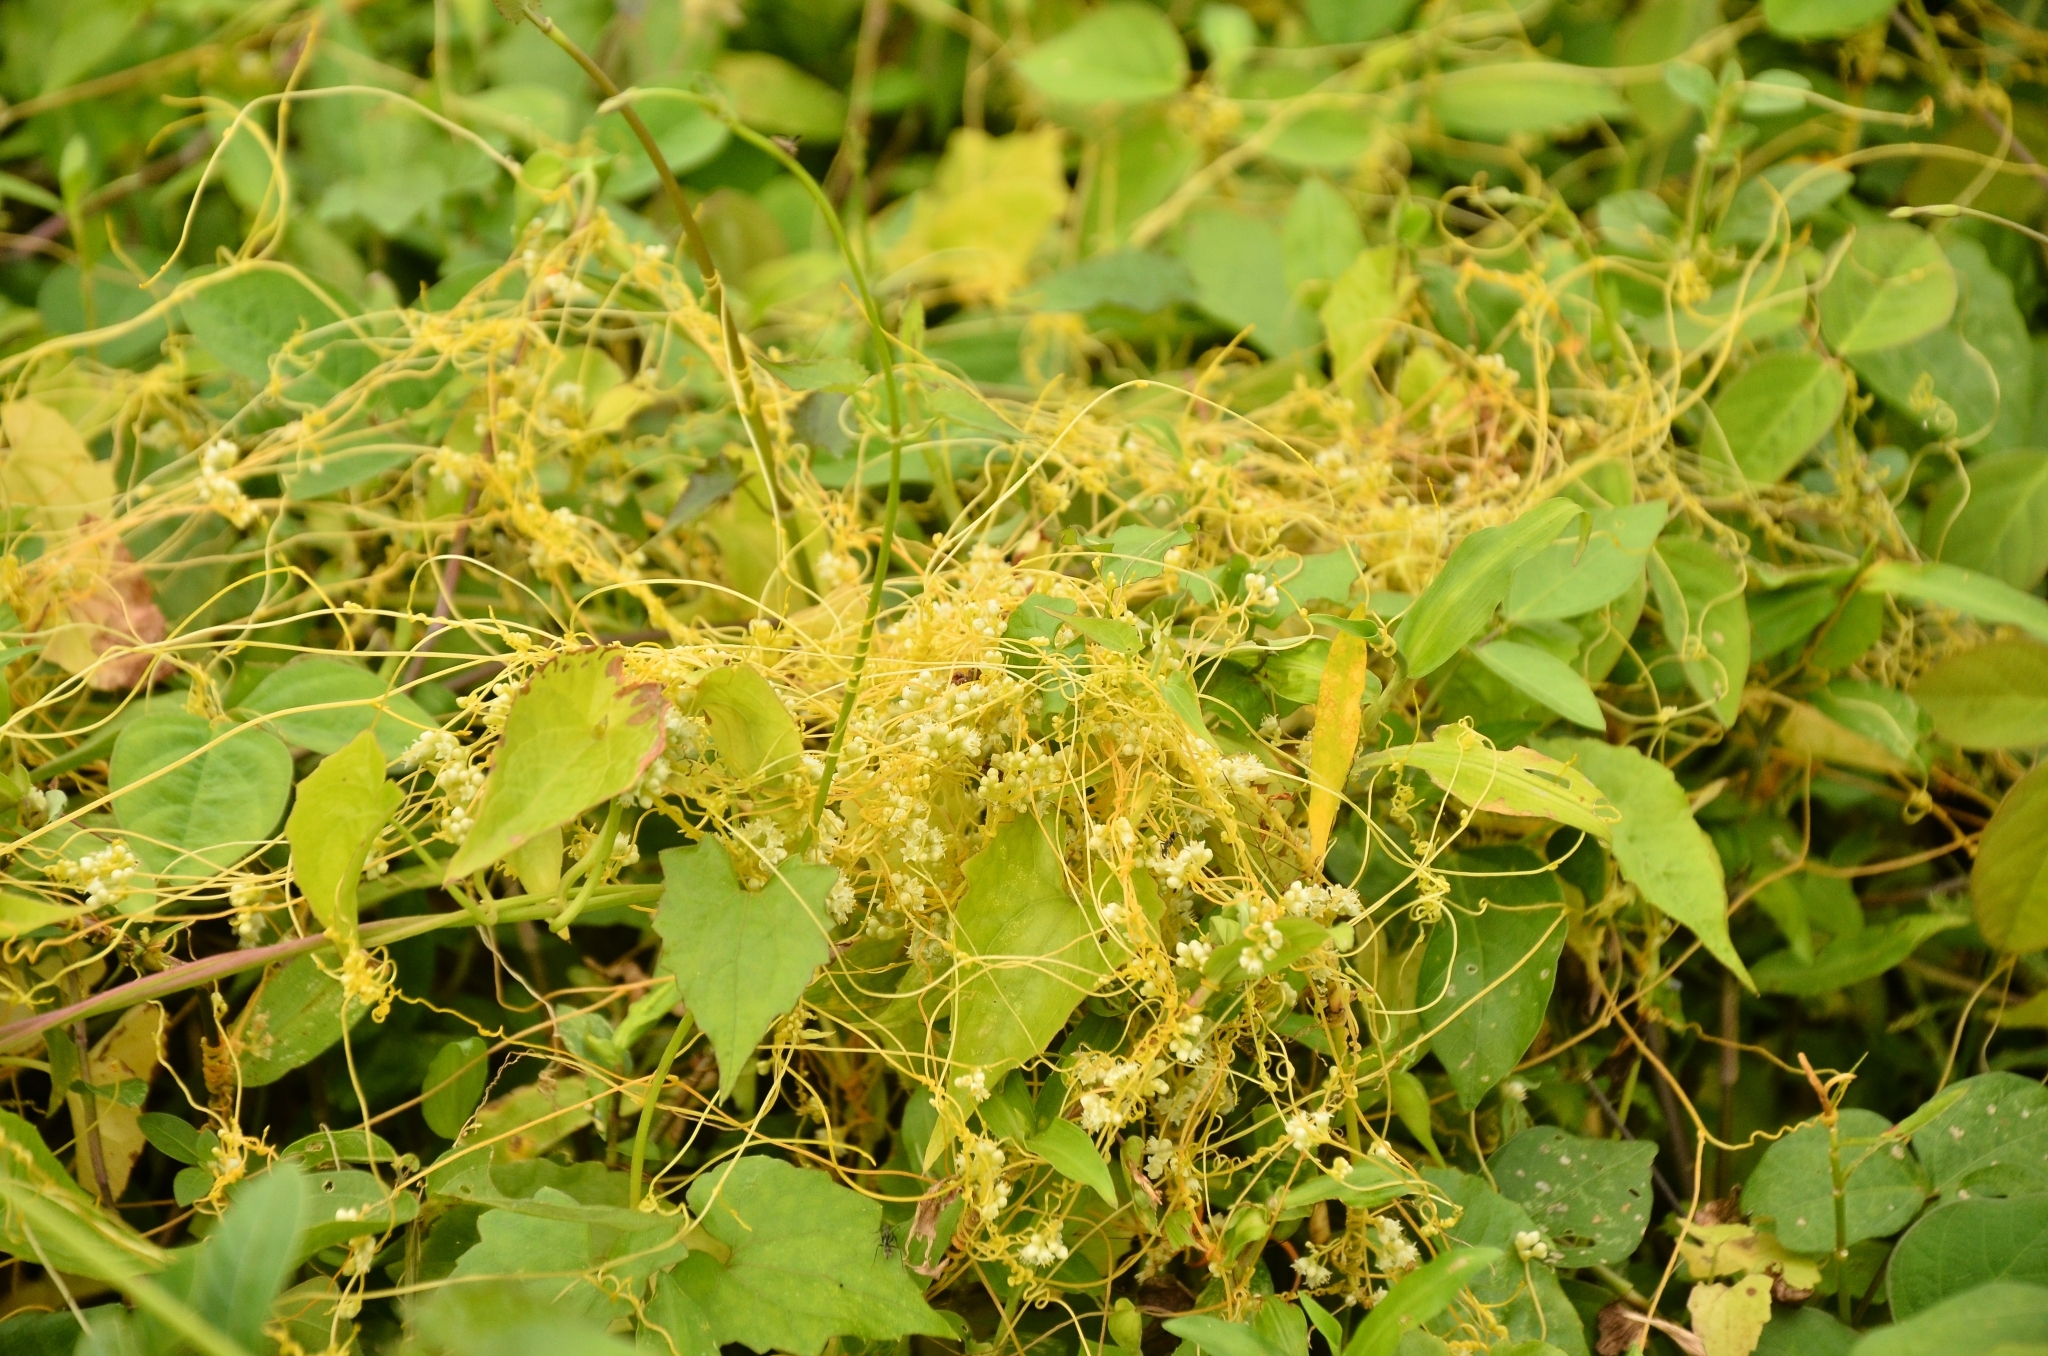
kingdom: Plantae
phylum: Tracheophyta
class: Magnoliopsida
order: Solanales
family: Convolvulaceae
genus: Cuscuta
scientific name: Cuscuta campestris
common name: Yellow dodder
